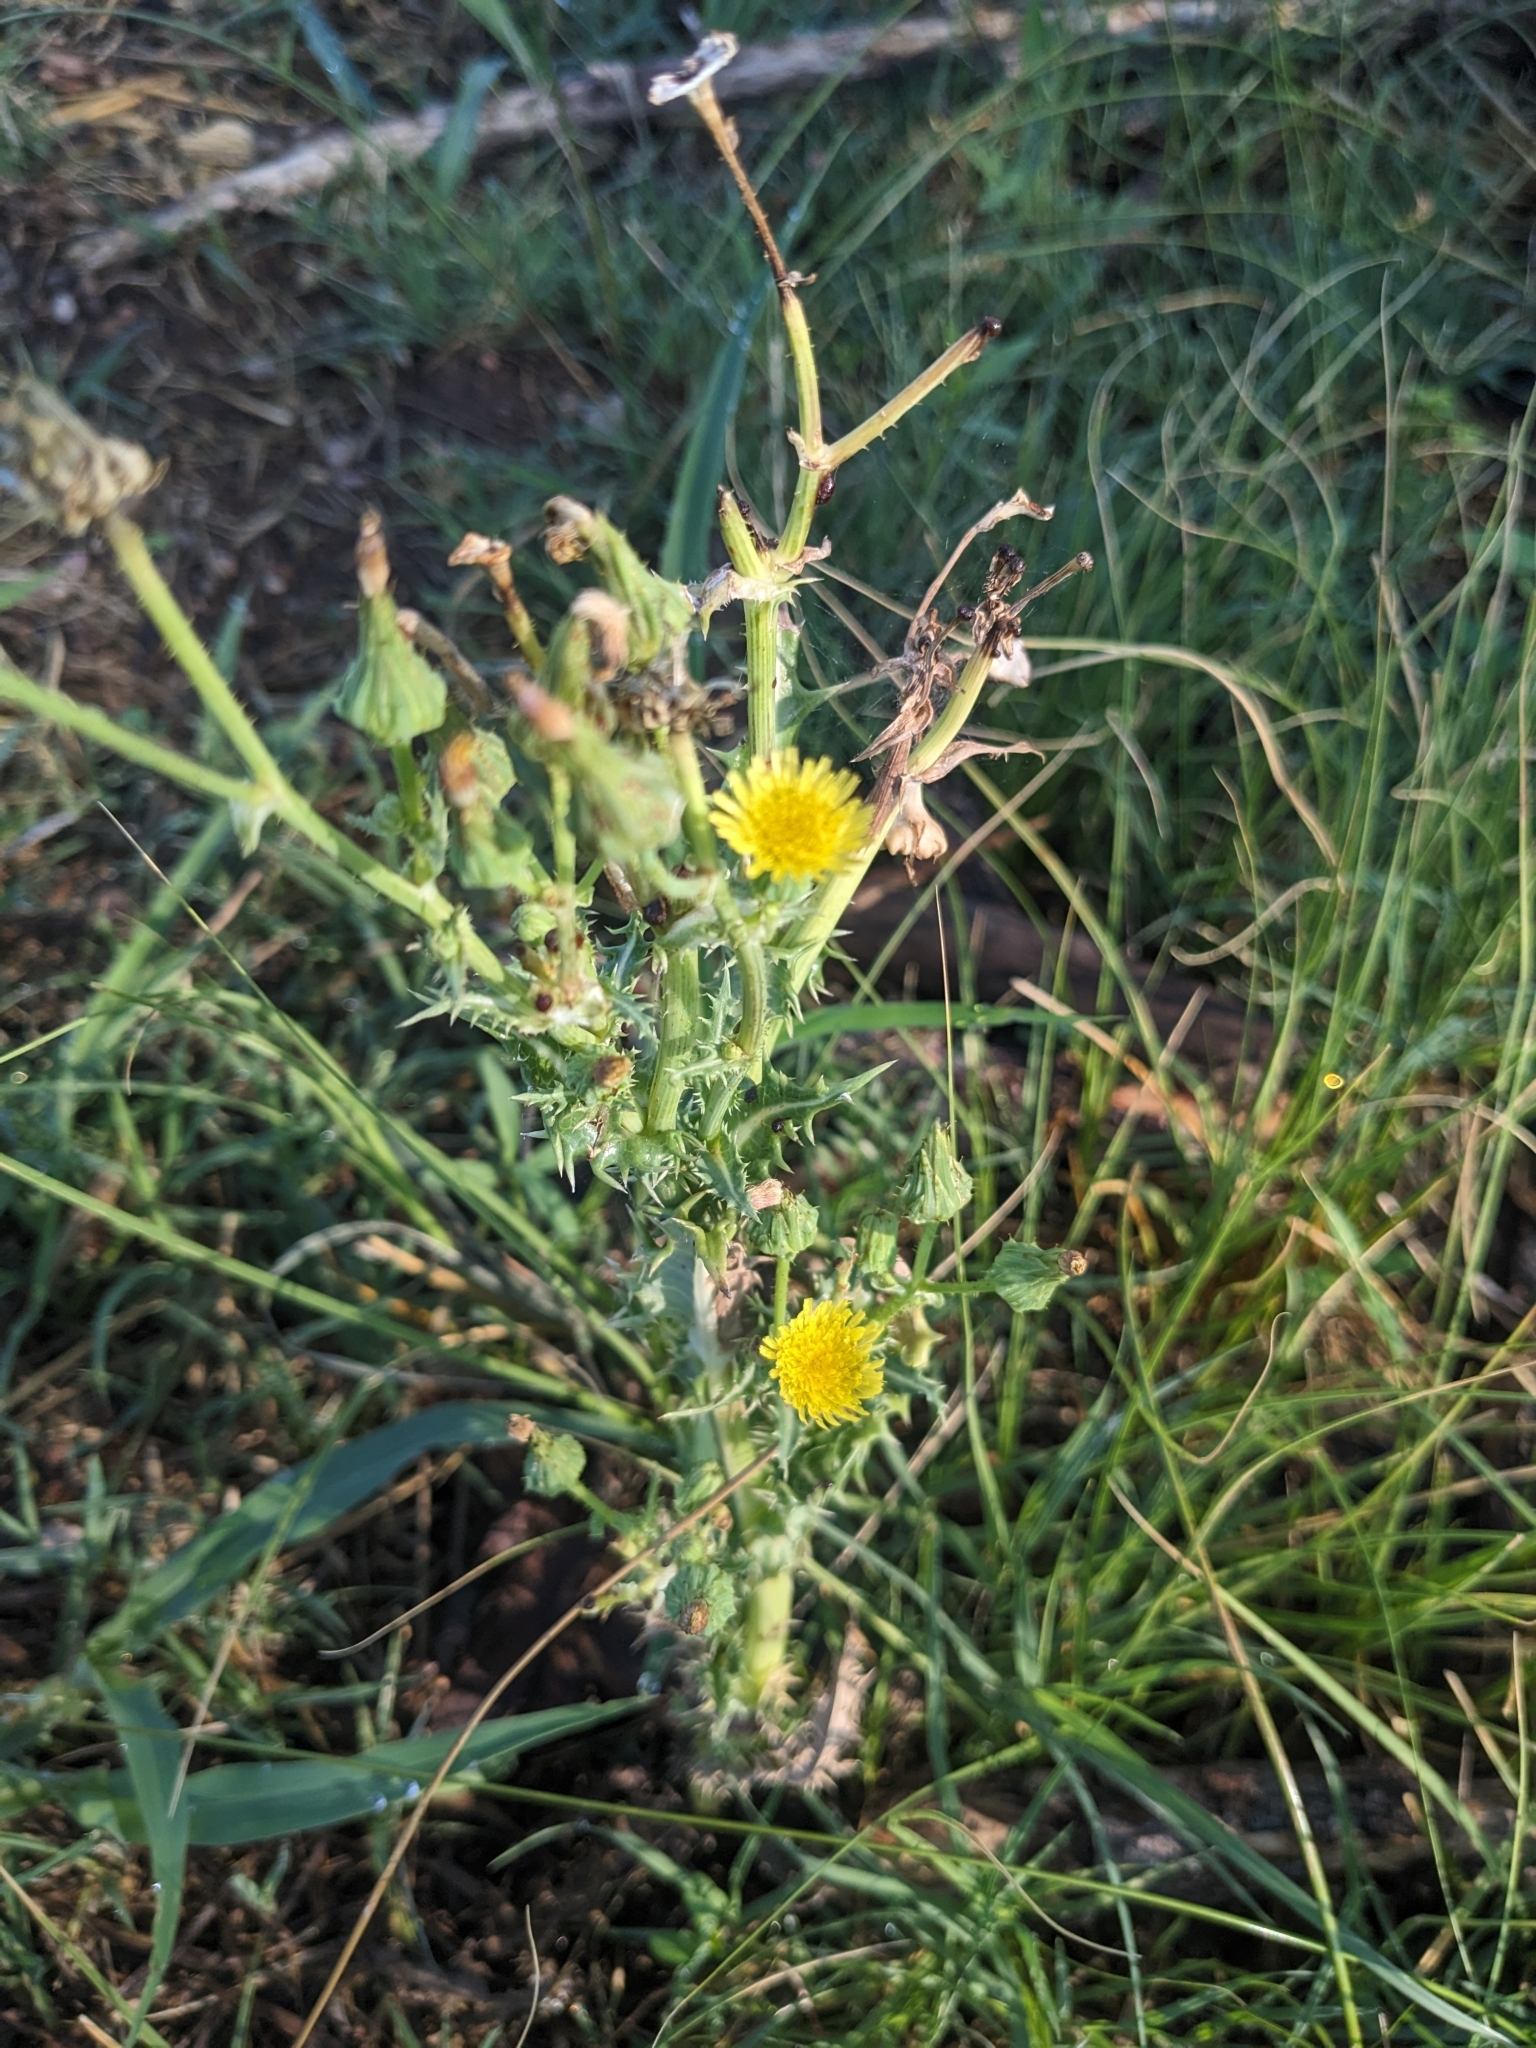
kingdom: Plantae
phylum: Tracheophyta
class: Magnoliopsida
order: Asterales
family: Asteraceae
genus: Sonchus
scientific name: Sonchus asper
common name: Prickly sow-thistle
